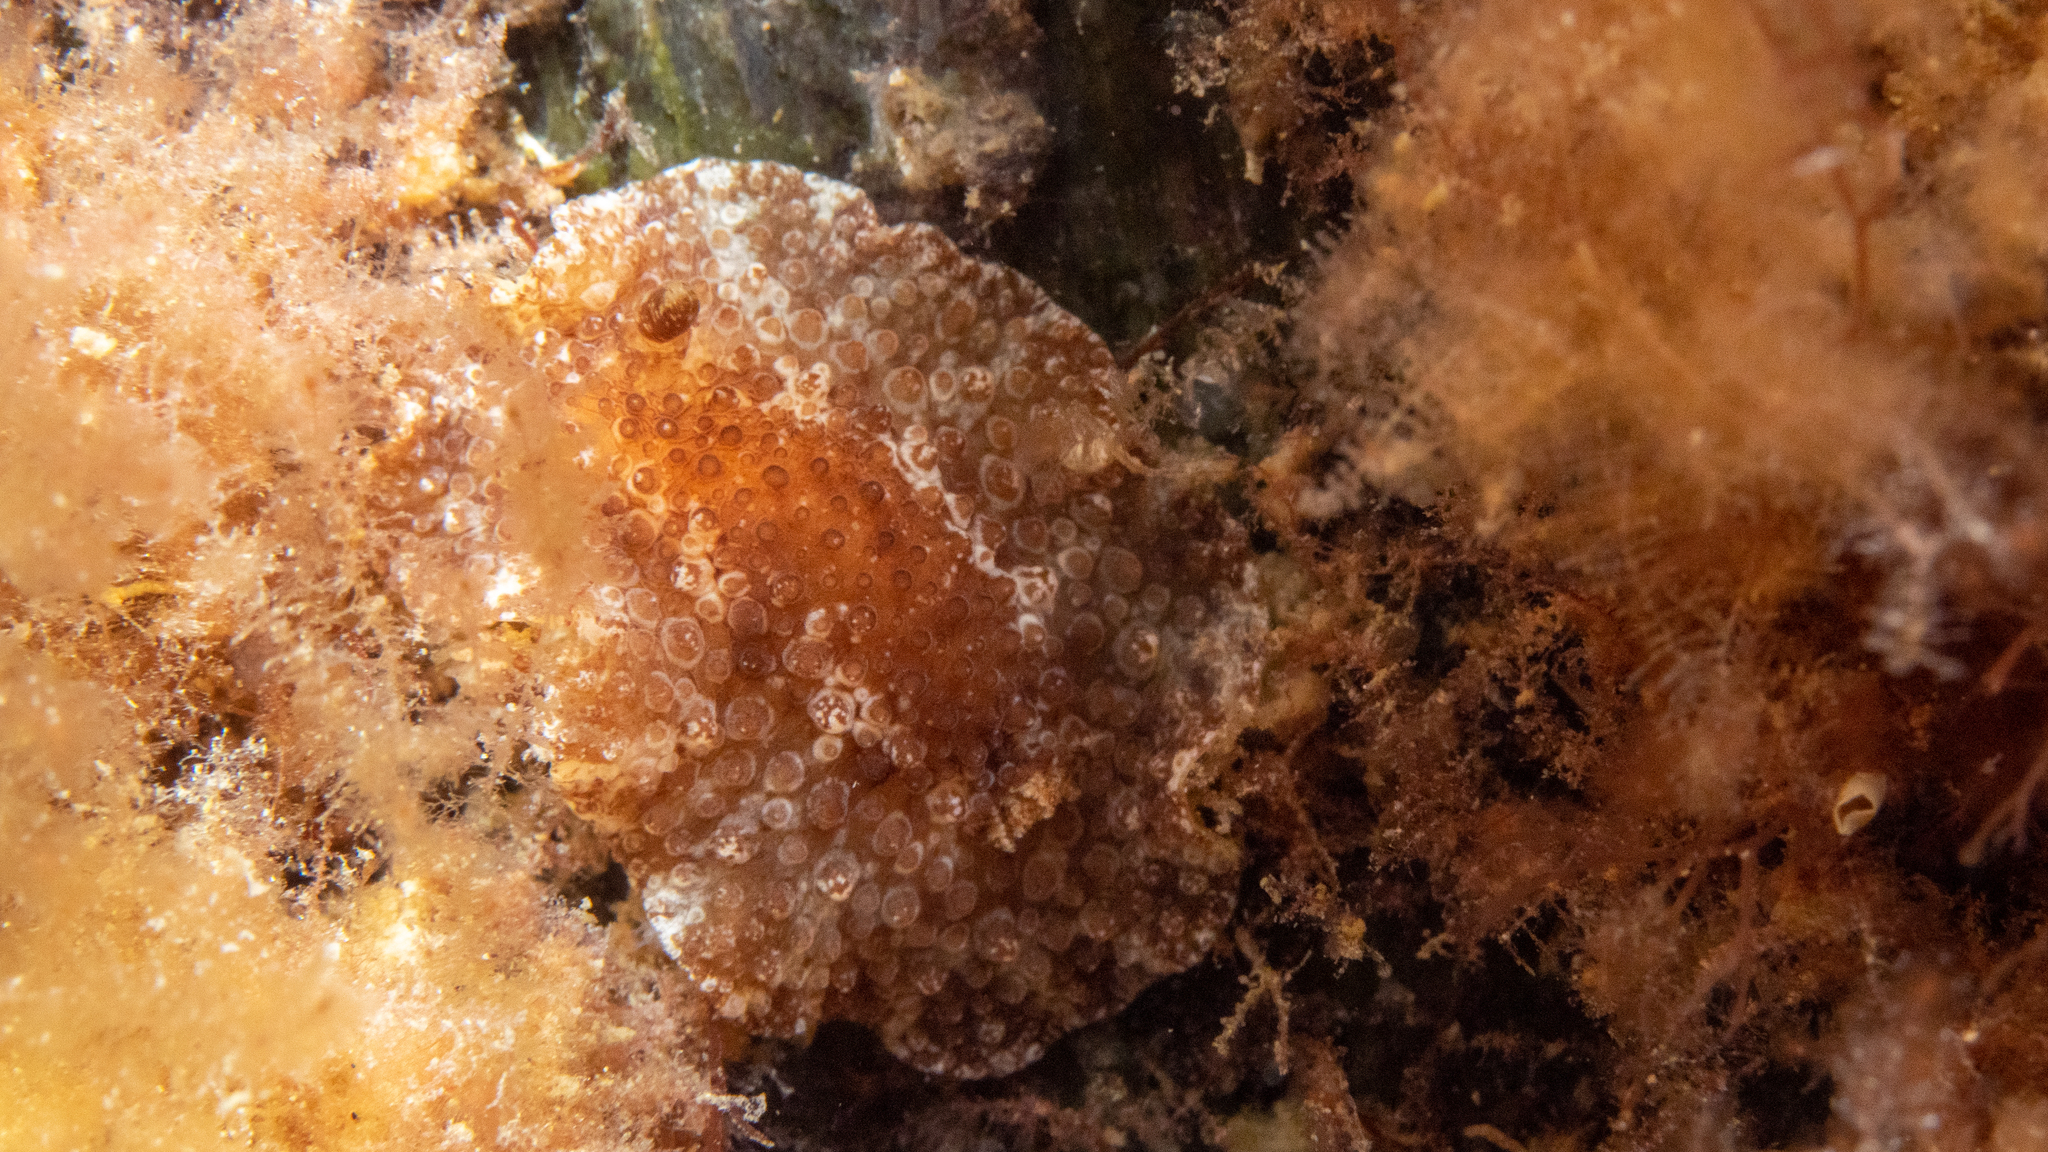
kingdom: Animalia
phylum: Mollusca
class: Gastropoda
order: Nudibranchia
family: Discodorididae
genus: Carminodoris
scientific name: Carminodoris nodulosa
